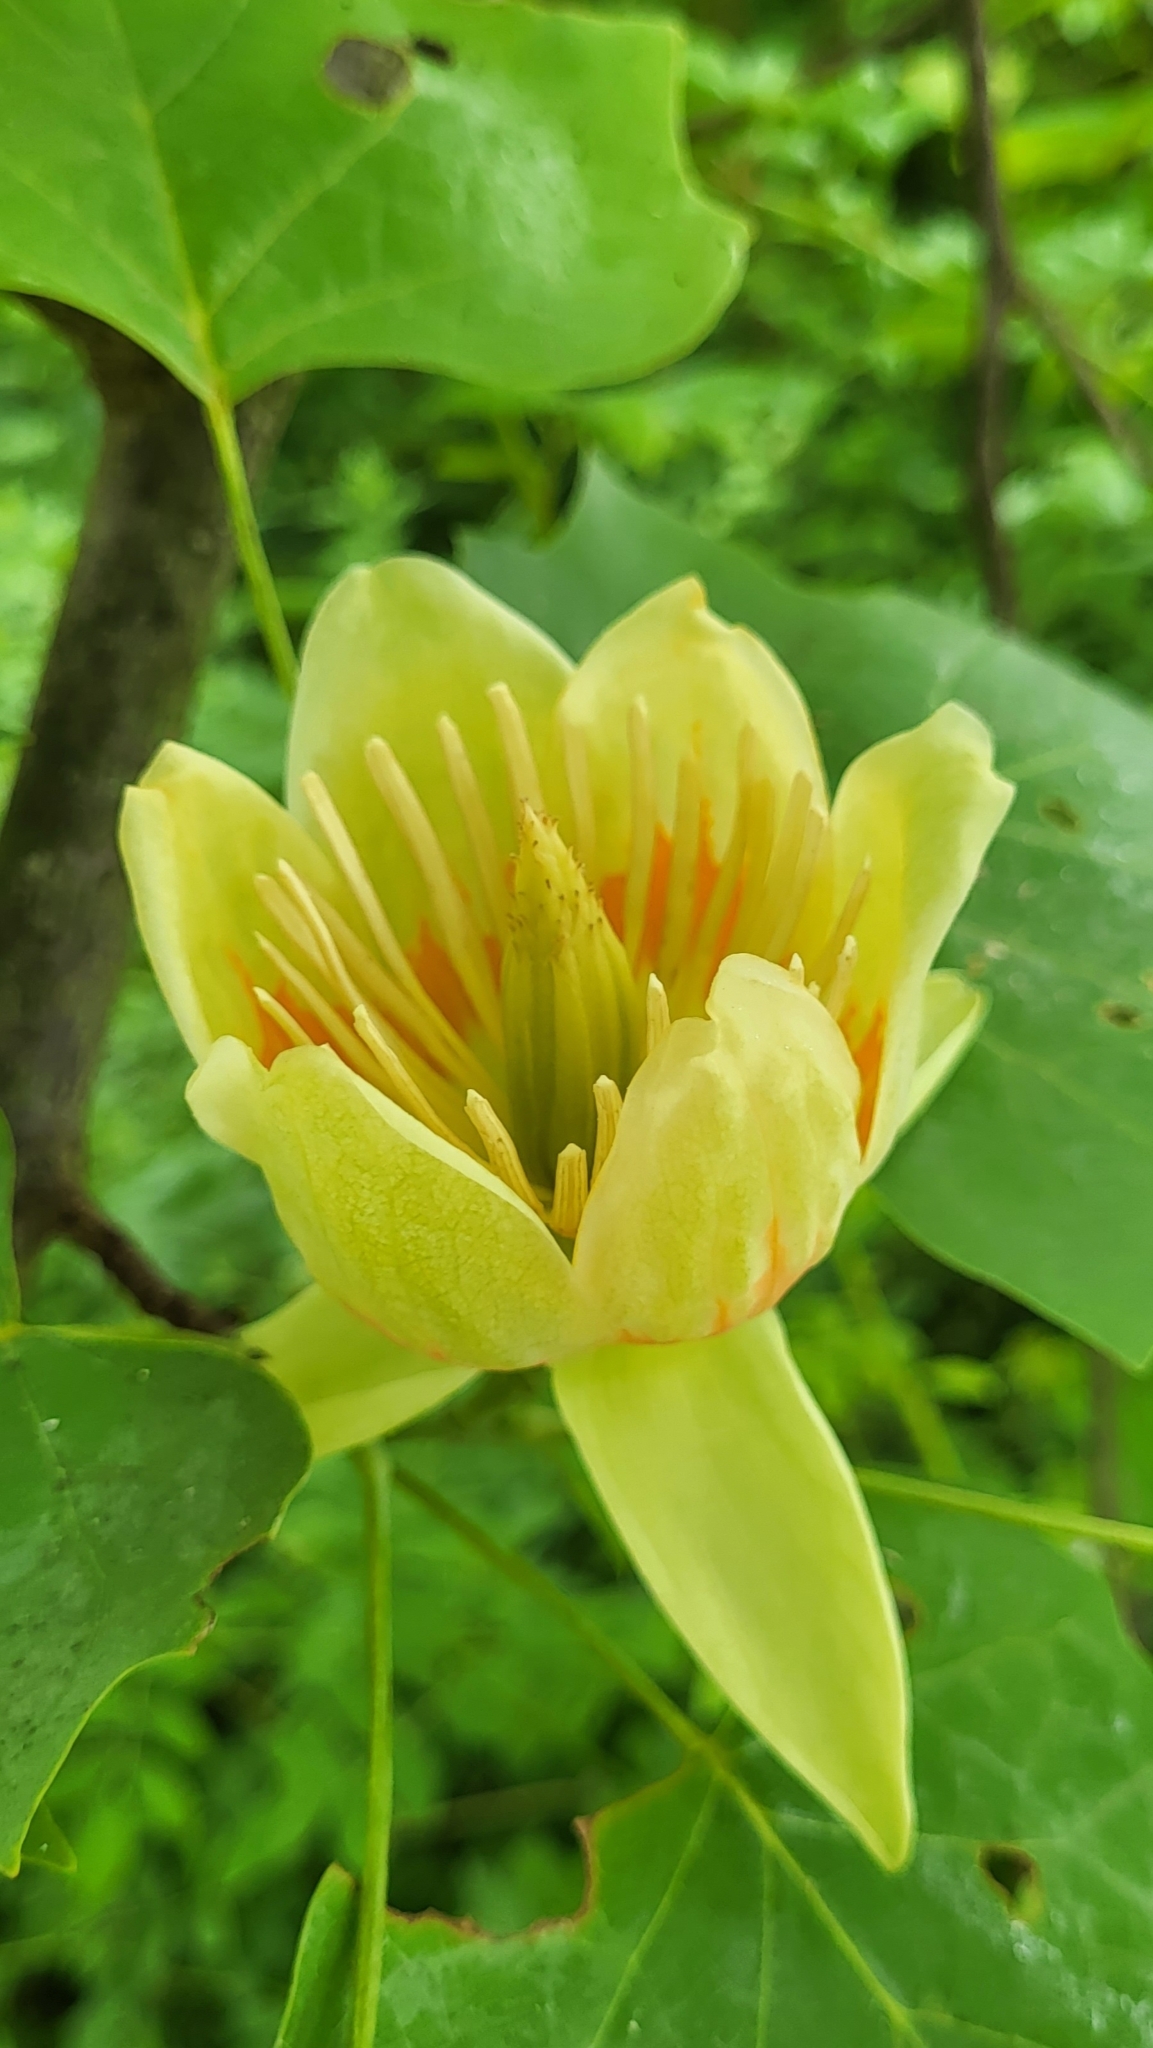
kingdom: Plantae
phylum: Tracheophyta
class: Magnoliopsida
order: Magnoliales
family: Magnoliaceae
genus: Liriodendron
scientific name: Liriodendron tulipifera
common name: Tulip tree
